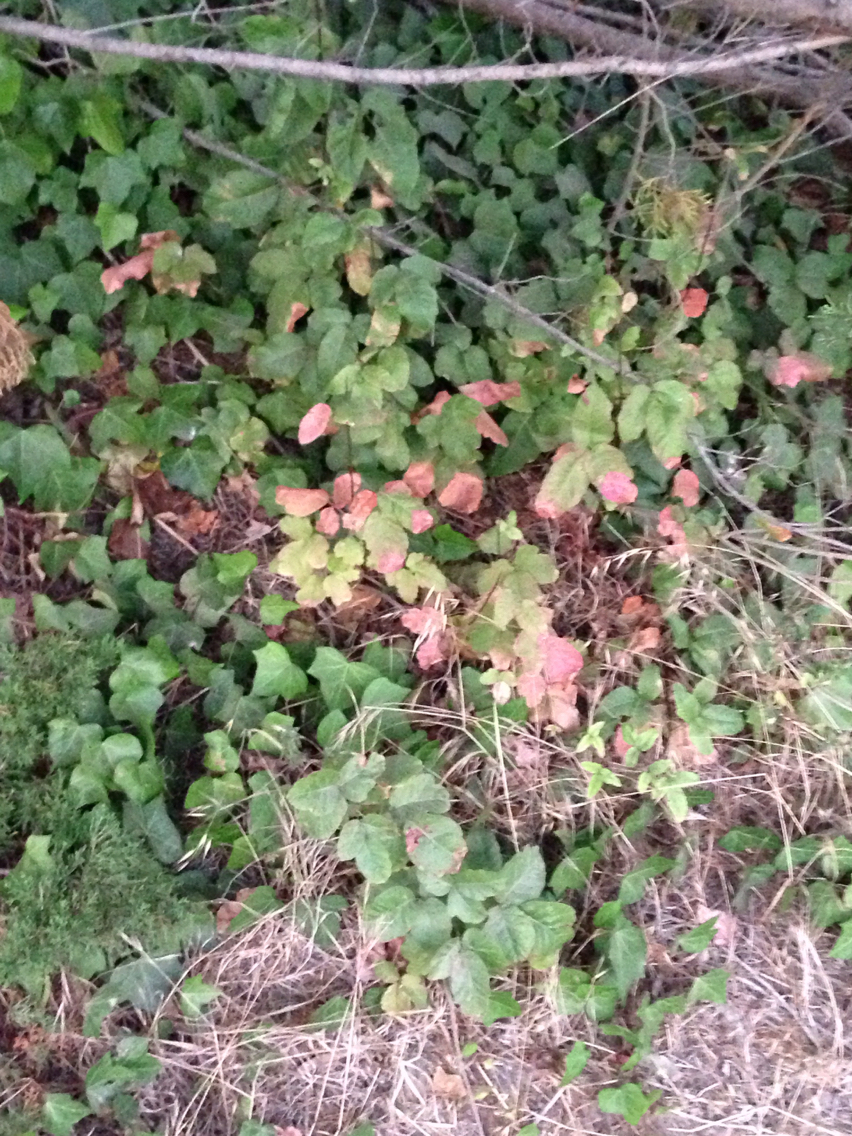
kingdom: Plantae
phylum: Tracheophyta
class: Magnoliopsida
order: Sapindales
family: Anacardiaceae
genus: Toxicodendron
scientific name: Toxicodendron diversilobum
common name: Pacific poison-oak
